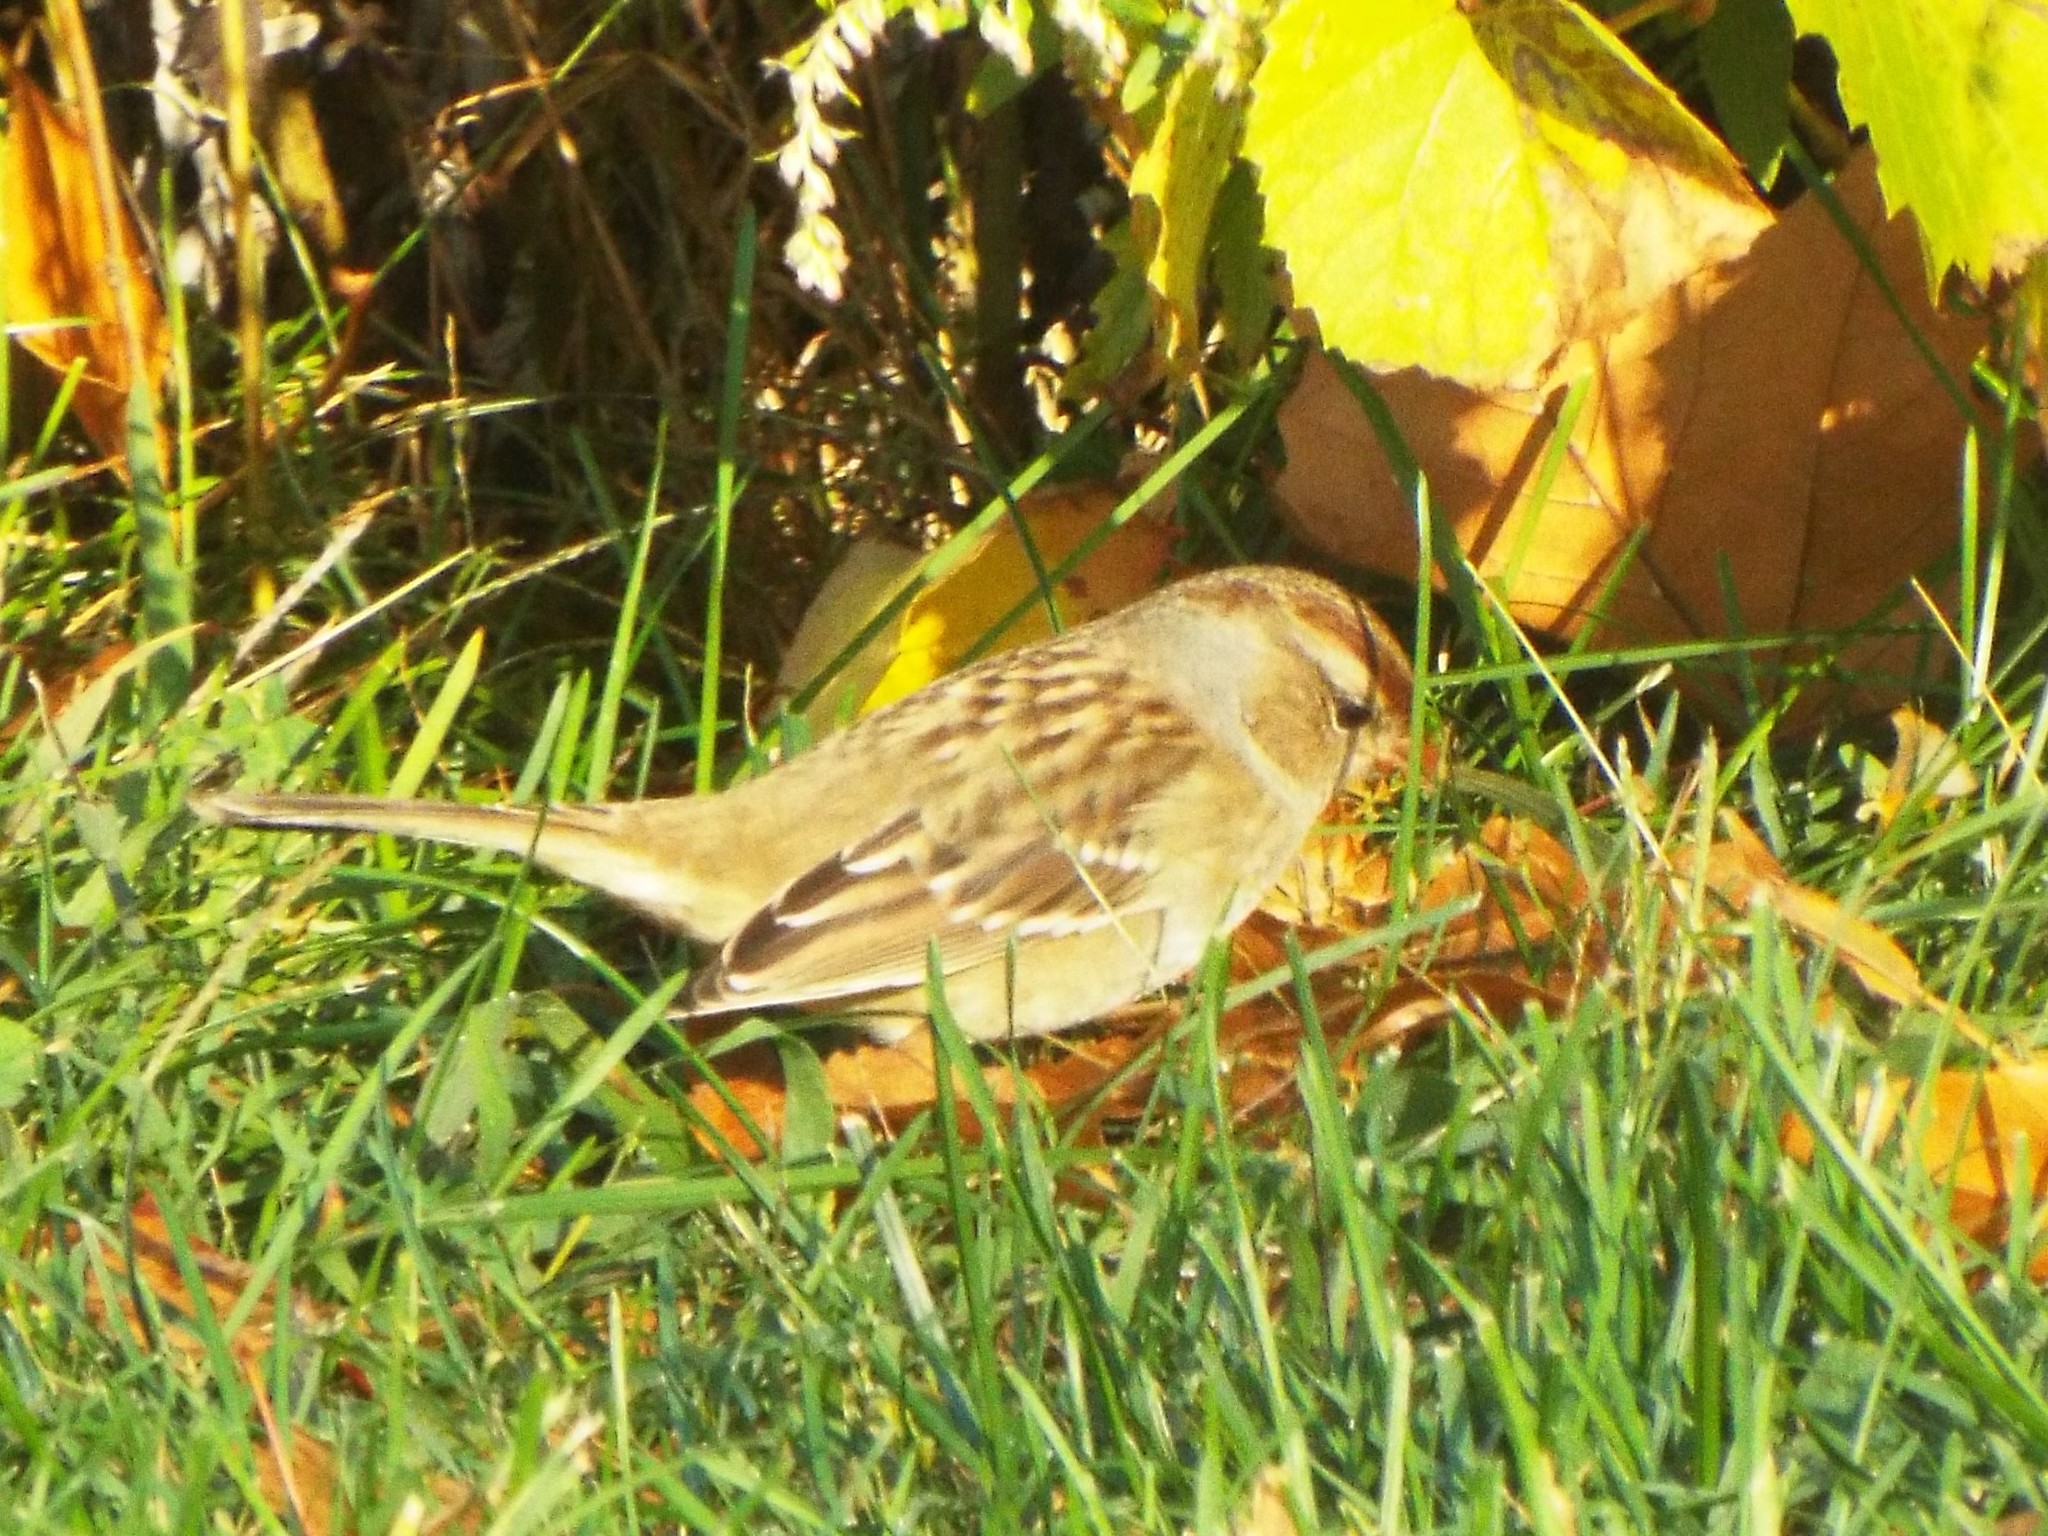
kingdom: Animalia
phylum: Chordata
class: Aves
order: Passeriformes
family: Passerellidae
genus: Zonotrichia
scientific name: Zonotrichia leucophrys
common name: White-crowned sparrow
